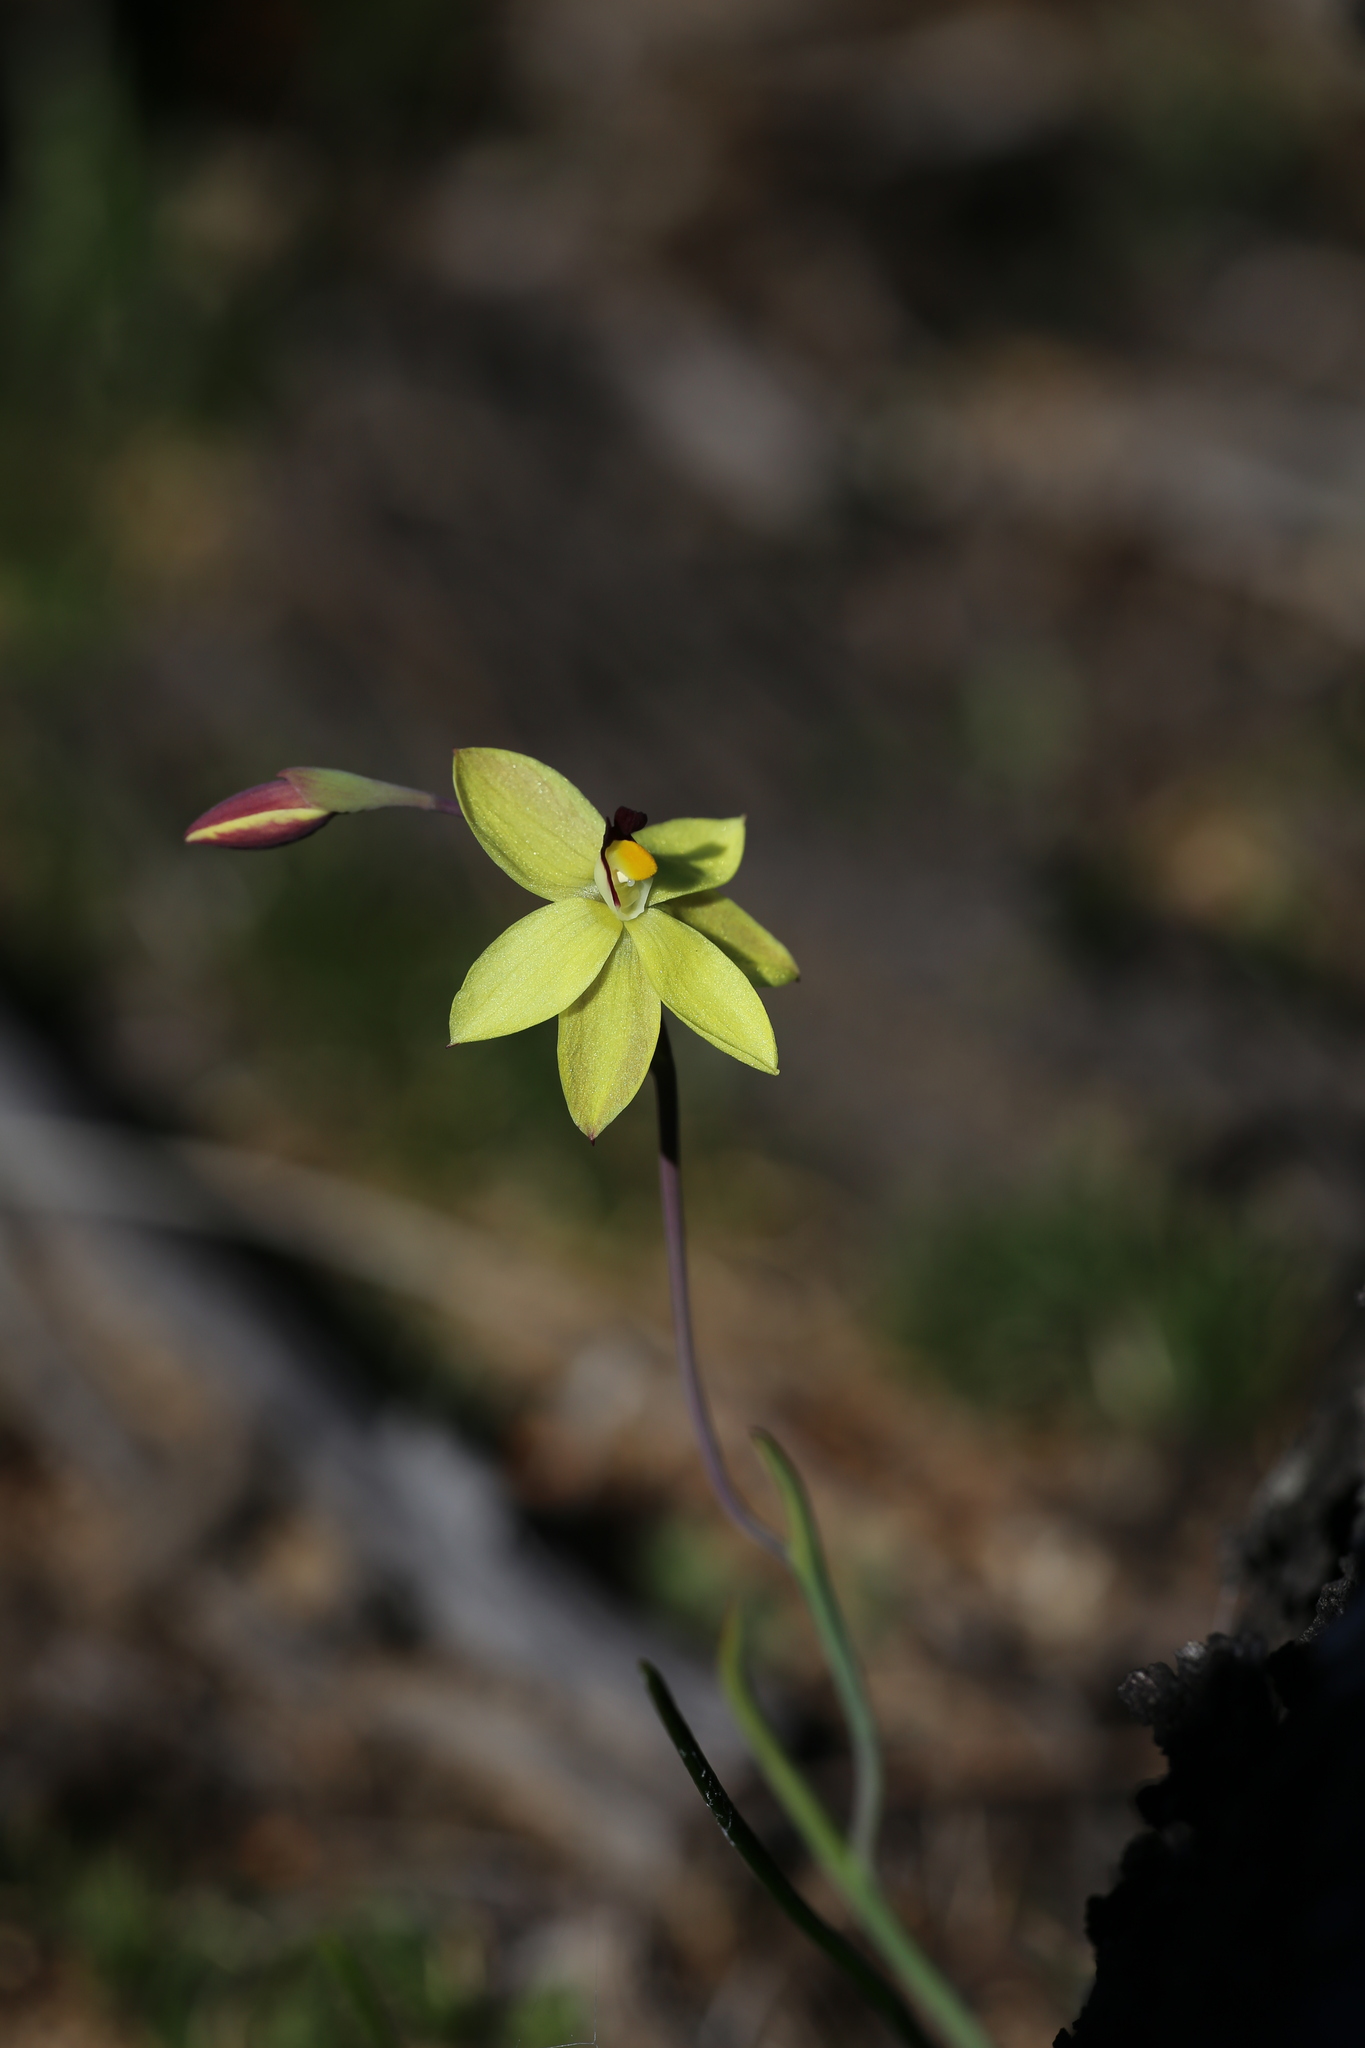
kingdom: Plantae
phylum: Tracheophyta
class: Liliopsida
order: Asparagales
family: Orchidaceae
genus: Thelymitra
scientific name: Thelymitra antennifera
